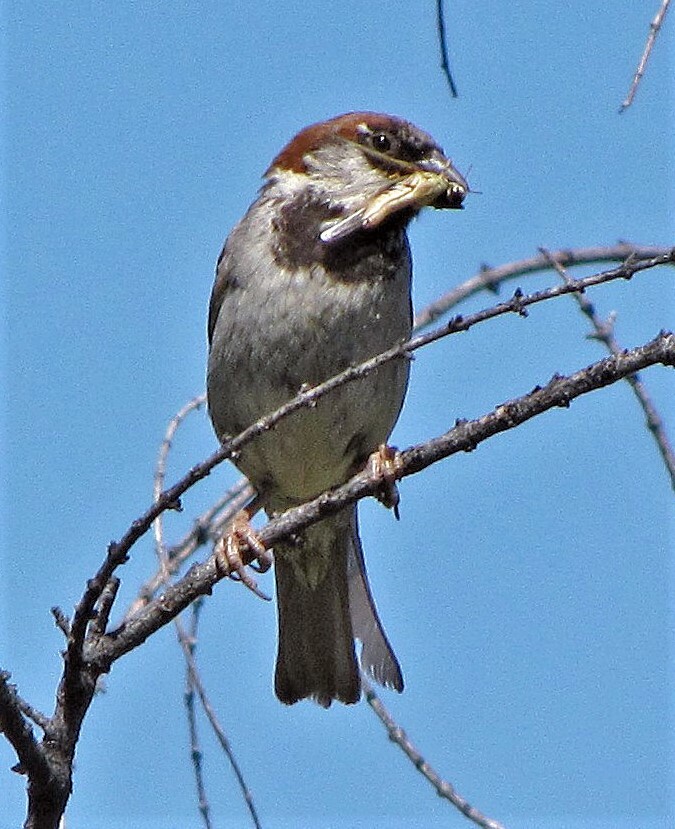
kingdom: Animalia
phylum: Chordata
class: Aves
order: Passeriformes
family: Passeridae
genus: Passer
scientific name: Passer domesticus
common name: House sparrow
